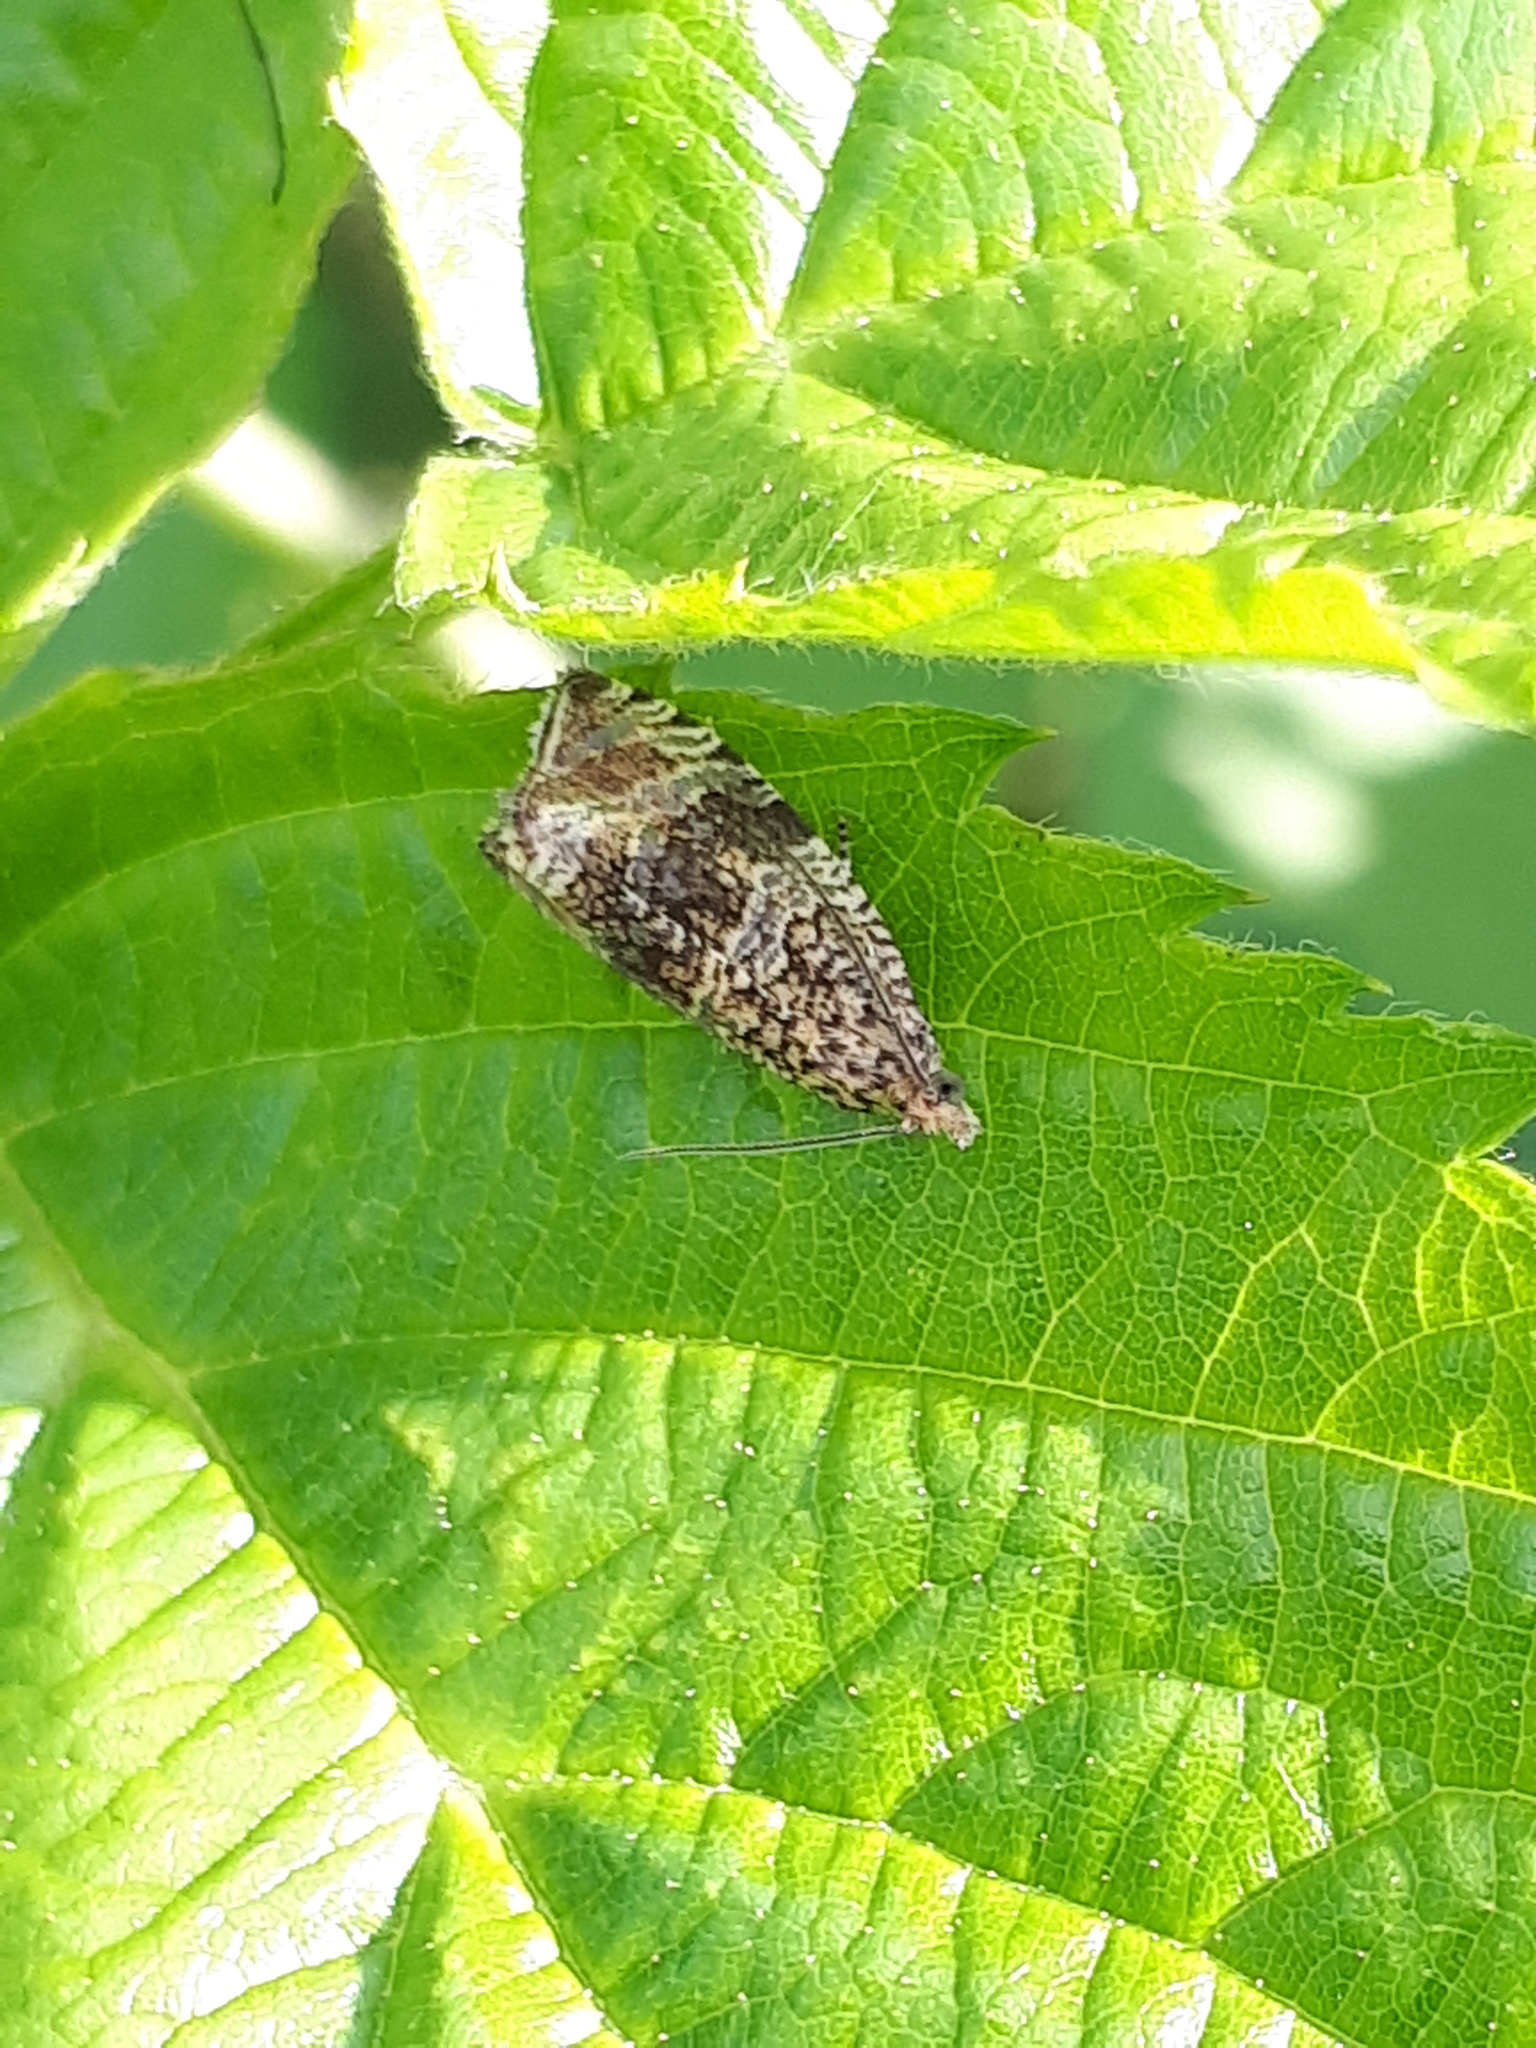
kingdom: Animalia
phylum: Arthropoda
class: Insecta
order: Lepidoptera
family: Tortricidae
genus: Syricoris
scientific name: Syricoris lacunana
